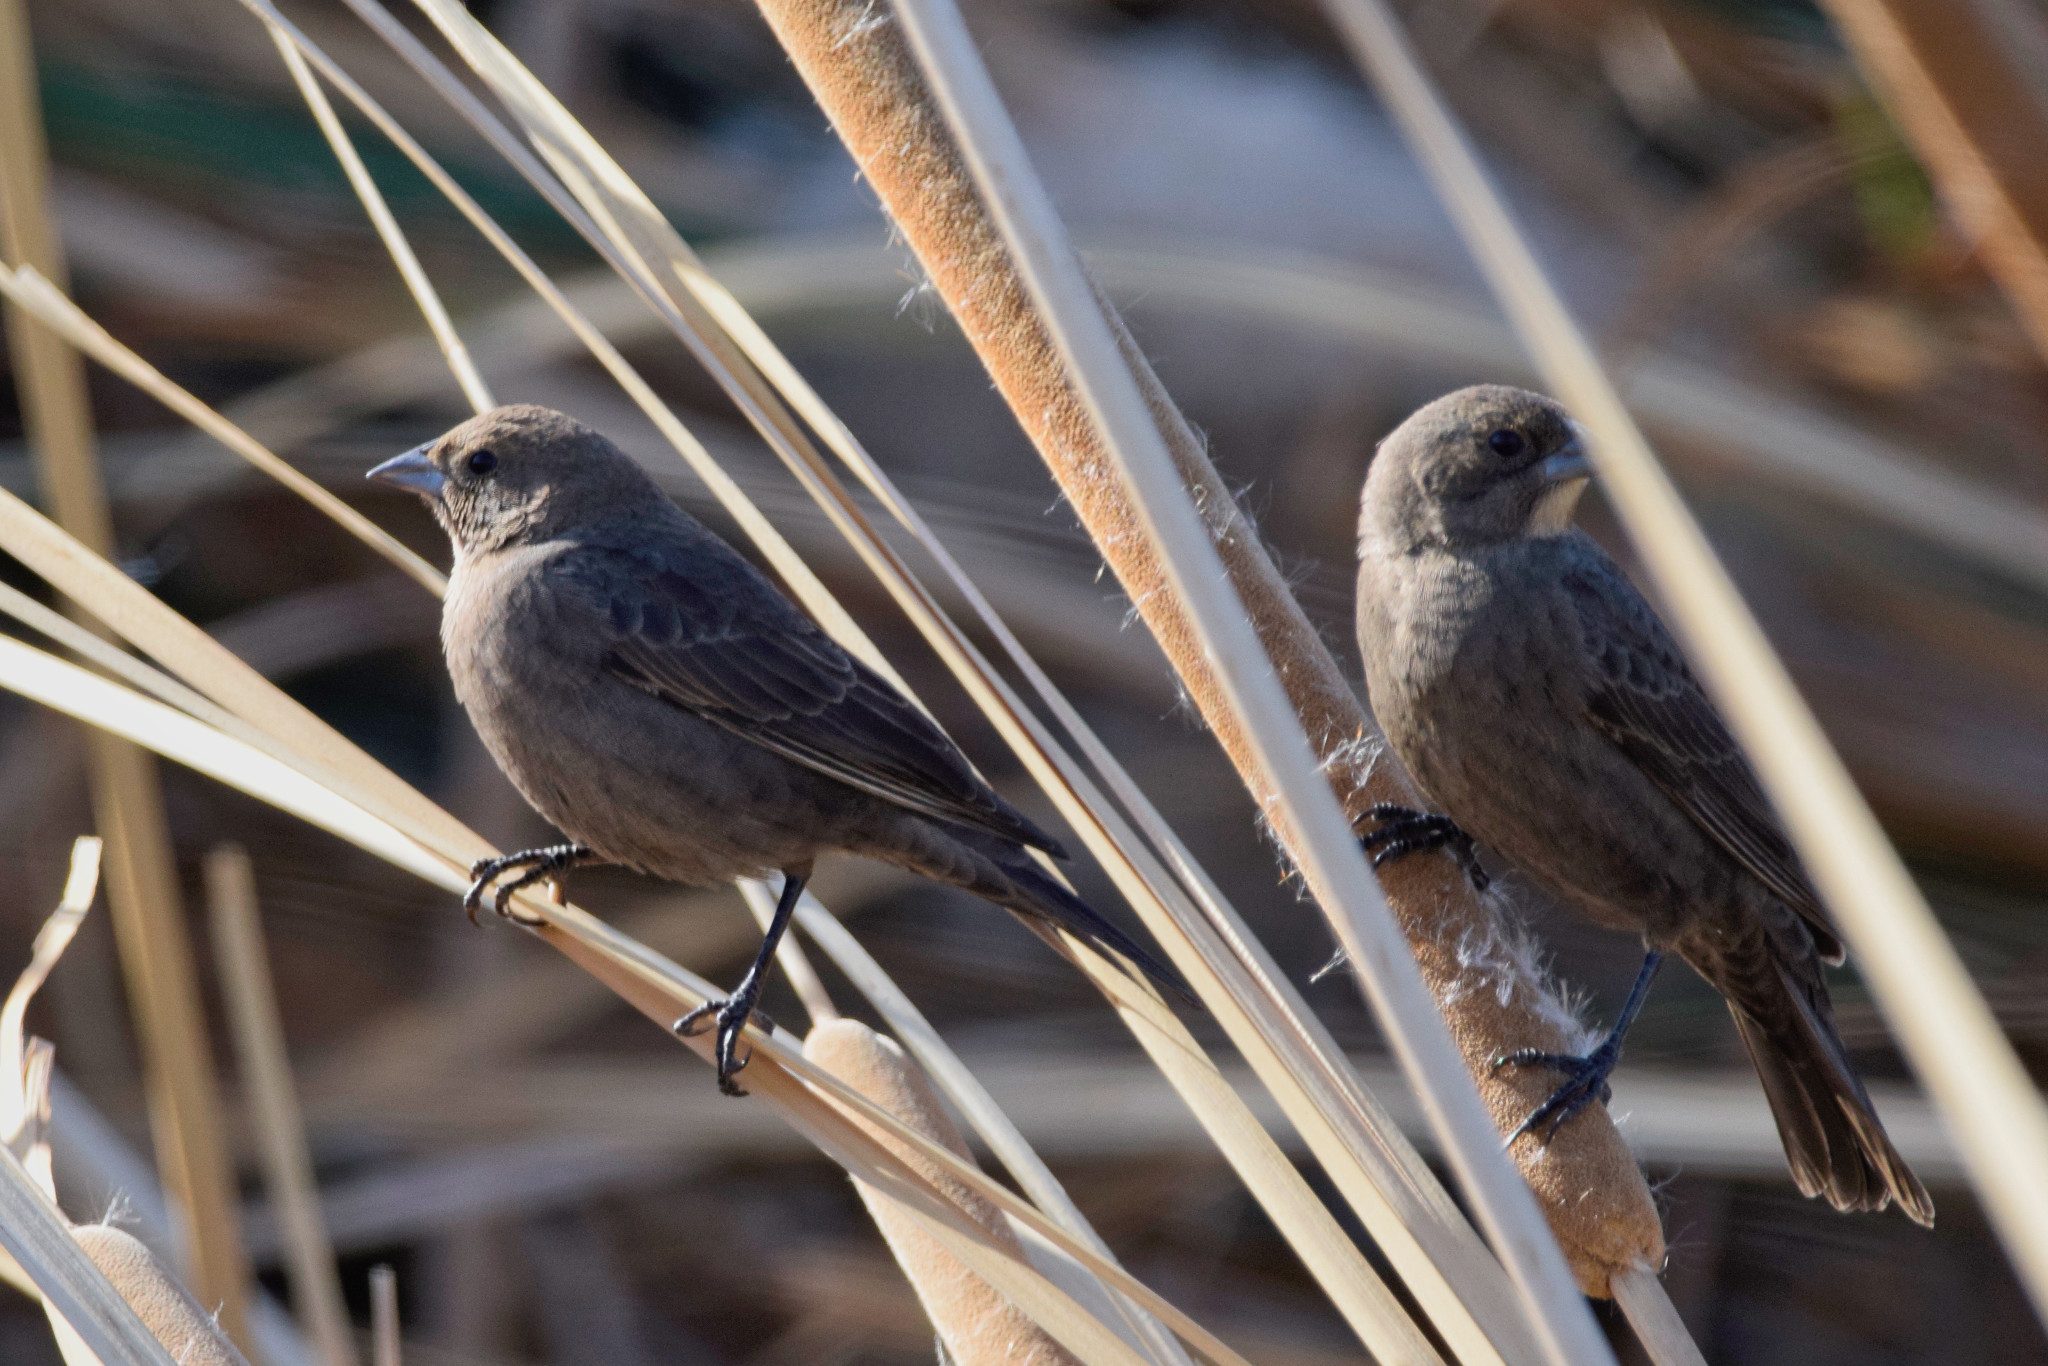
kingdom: Animalia
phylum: Chordata
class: Aves
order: Passeriformes
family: Icteridae
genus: Molothrus
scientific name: Molothrus ater
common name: Brown-headed cowbird
